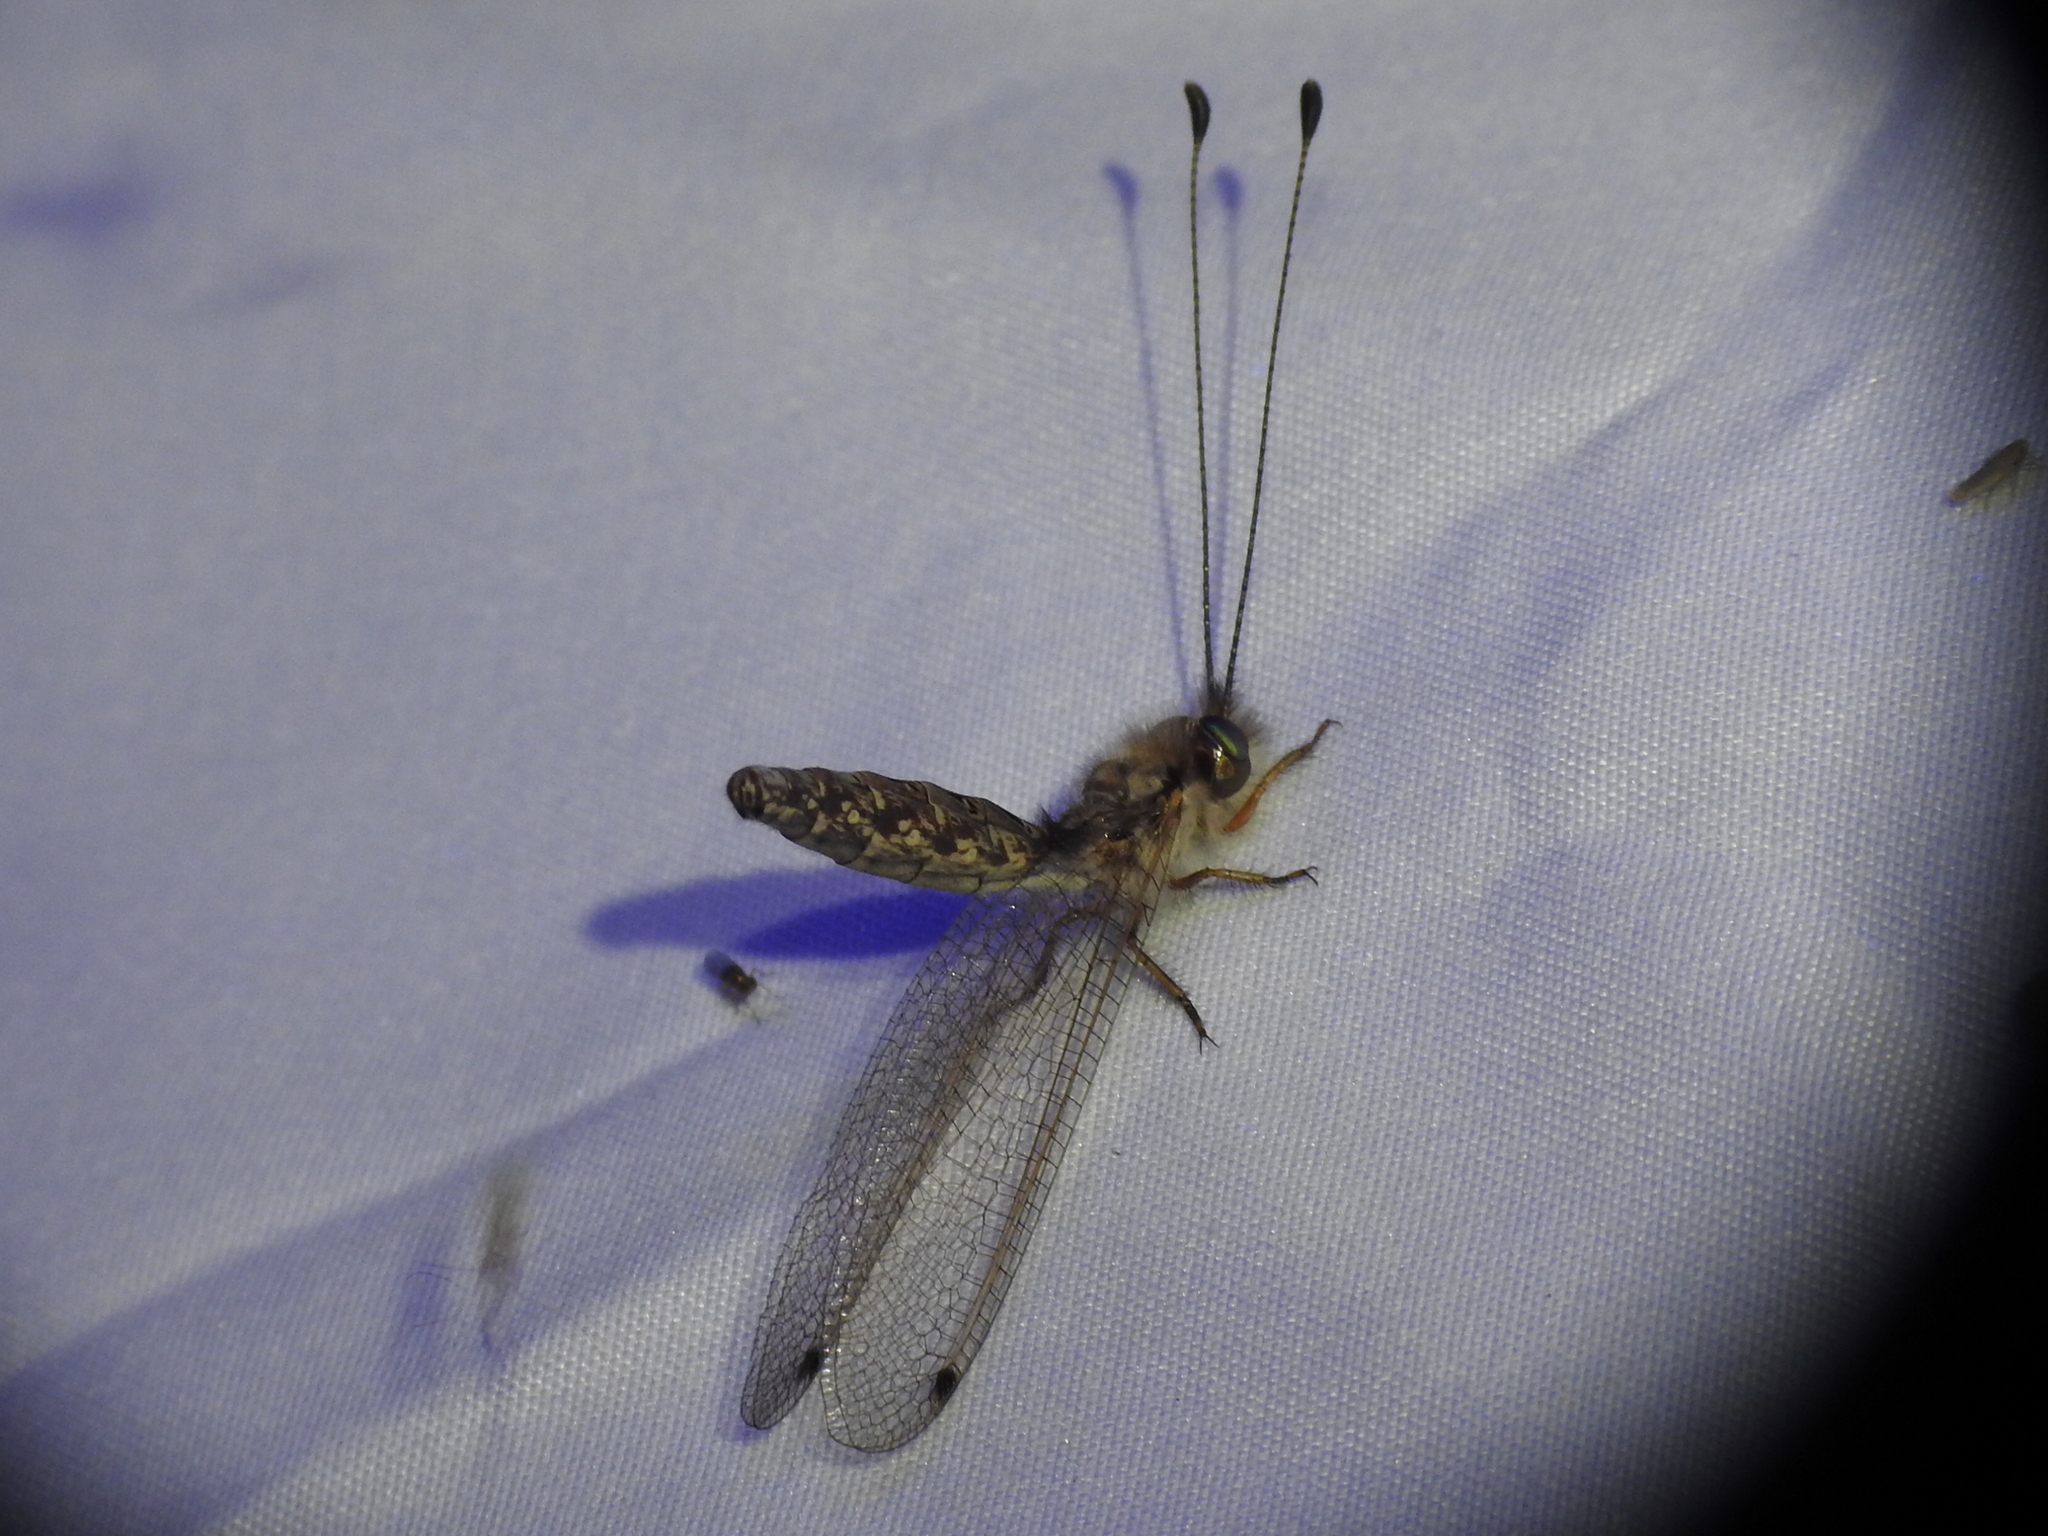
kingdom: Animalia
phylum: Arthropoda
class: Insecta
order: Neuroptera
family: Ascalaphidae
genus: Ululodes
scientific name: Ululodes macleayanus
